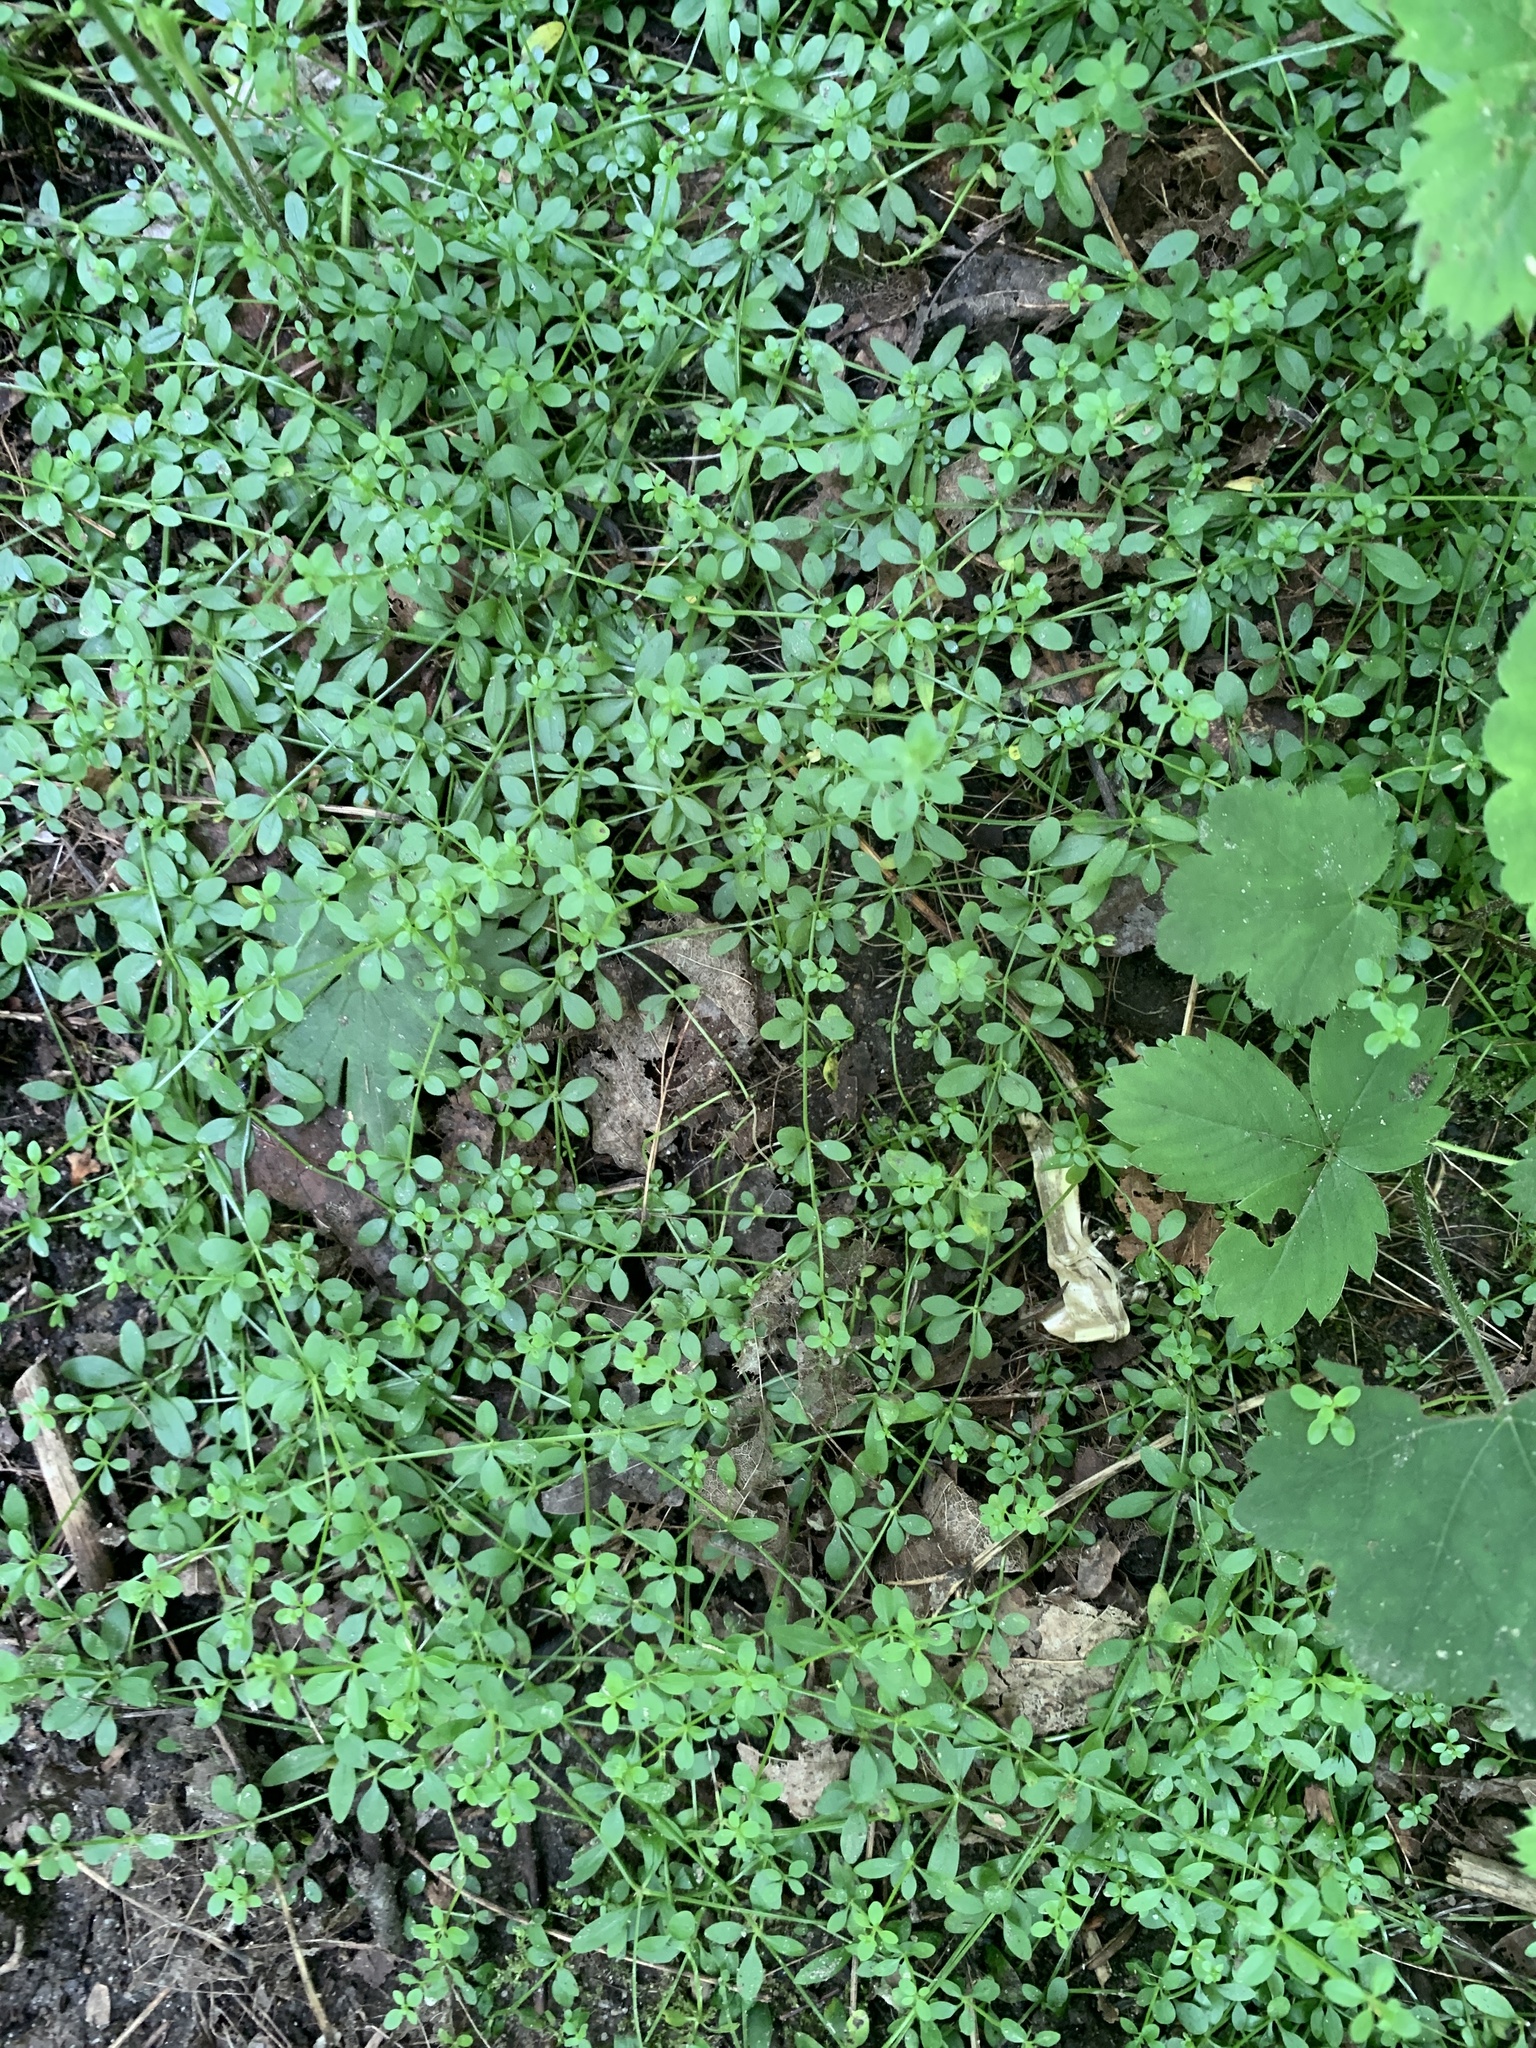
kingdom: Plantae
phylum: Tracheophyta
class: Magnoliopsida
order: Gentianales
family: Rubiaceae
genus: Galium
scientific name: Galium palustre
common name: Common marsh-bedstraw
